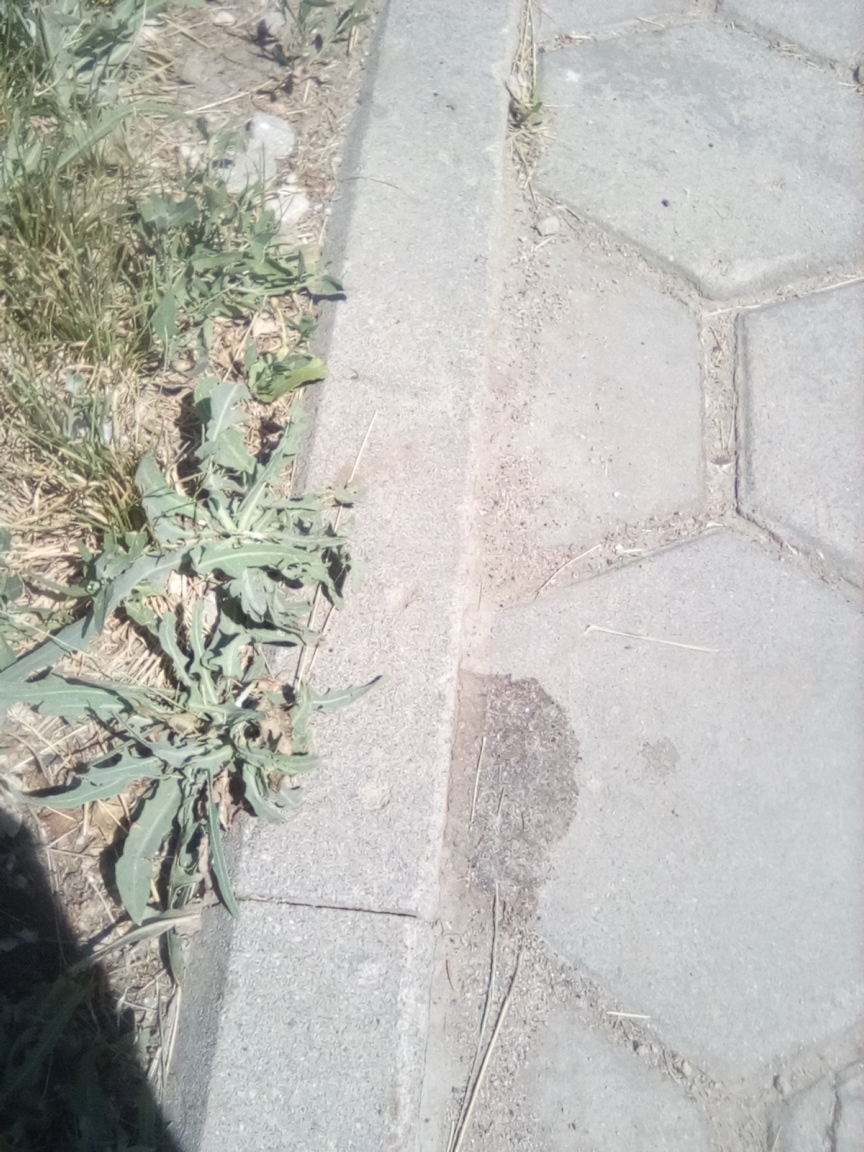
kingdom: Plantae
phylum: Tracheophyta
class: Magnoliopsida
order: Asterales
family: Asteraceae
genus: Lactuca
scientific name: Lactuca tatarica
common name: Blue lettuce
